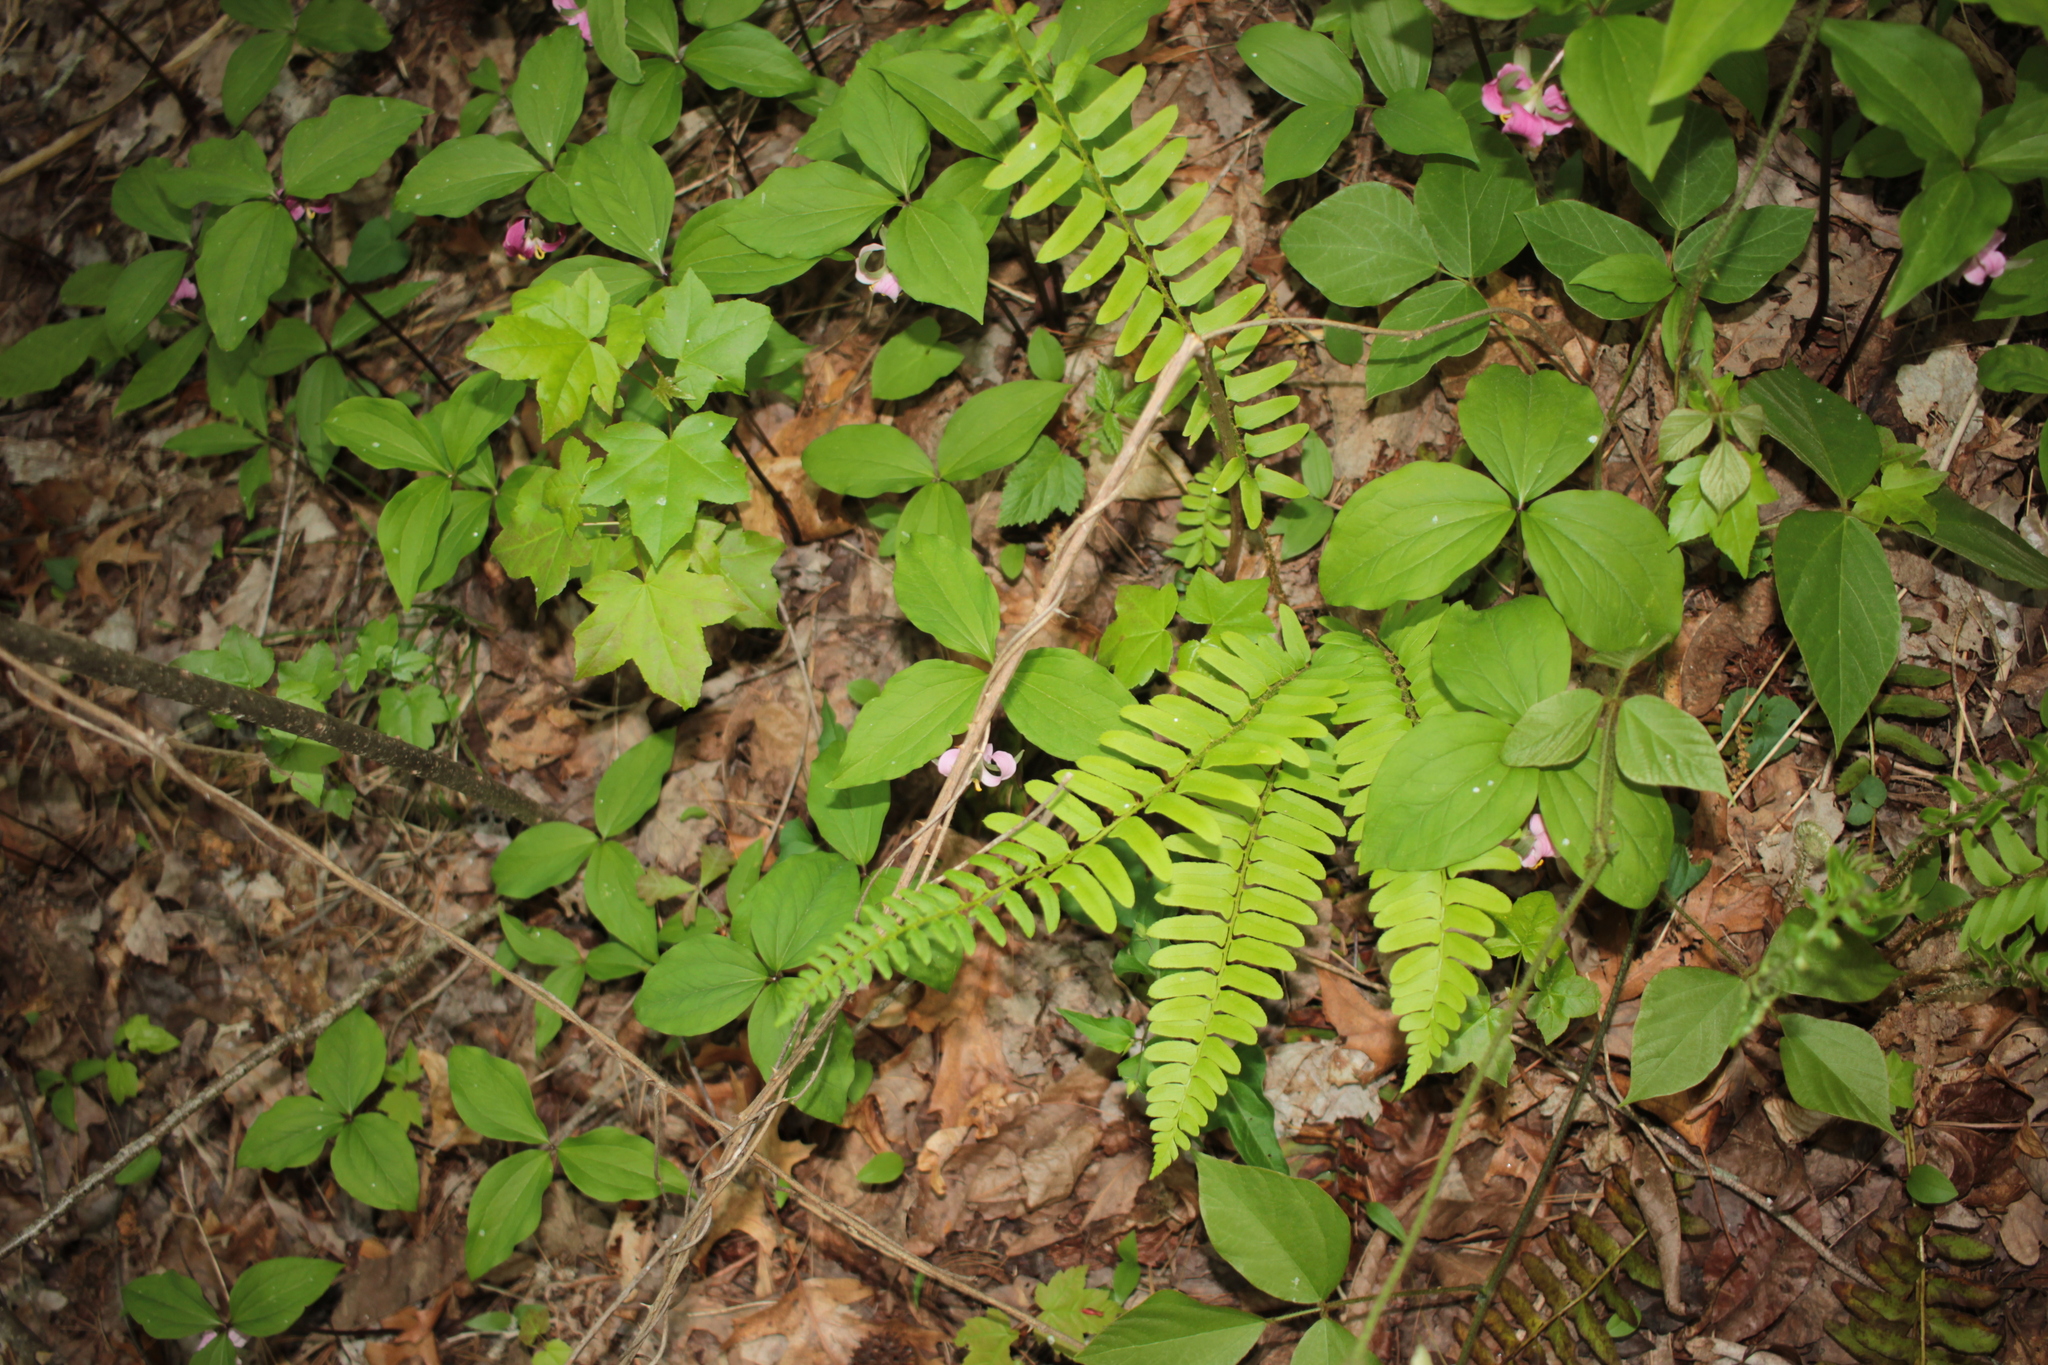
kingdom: Plantae
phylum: Tracheophyta
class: Polypodiopsida
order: Polypodiales
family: Dryopteridaceae
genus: Polystichum
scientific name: Polystichum acrostichoides
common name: Christmas fern
